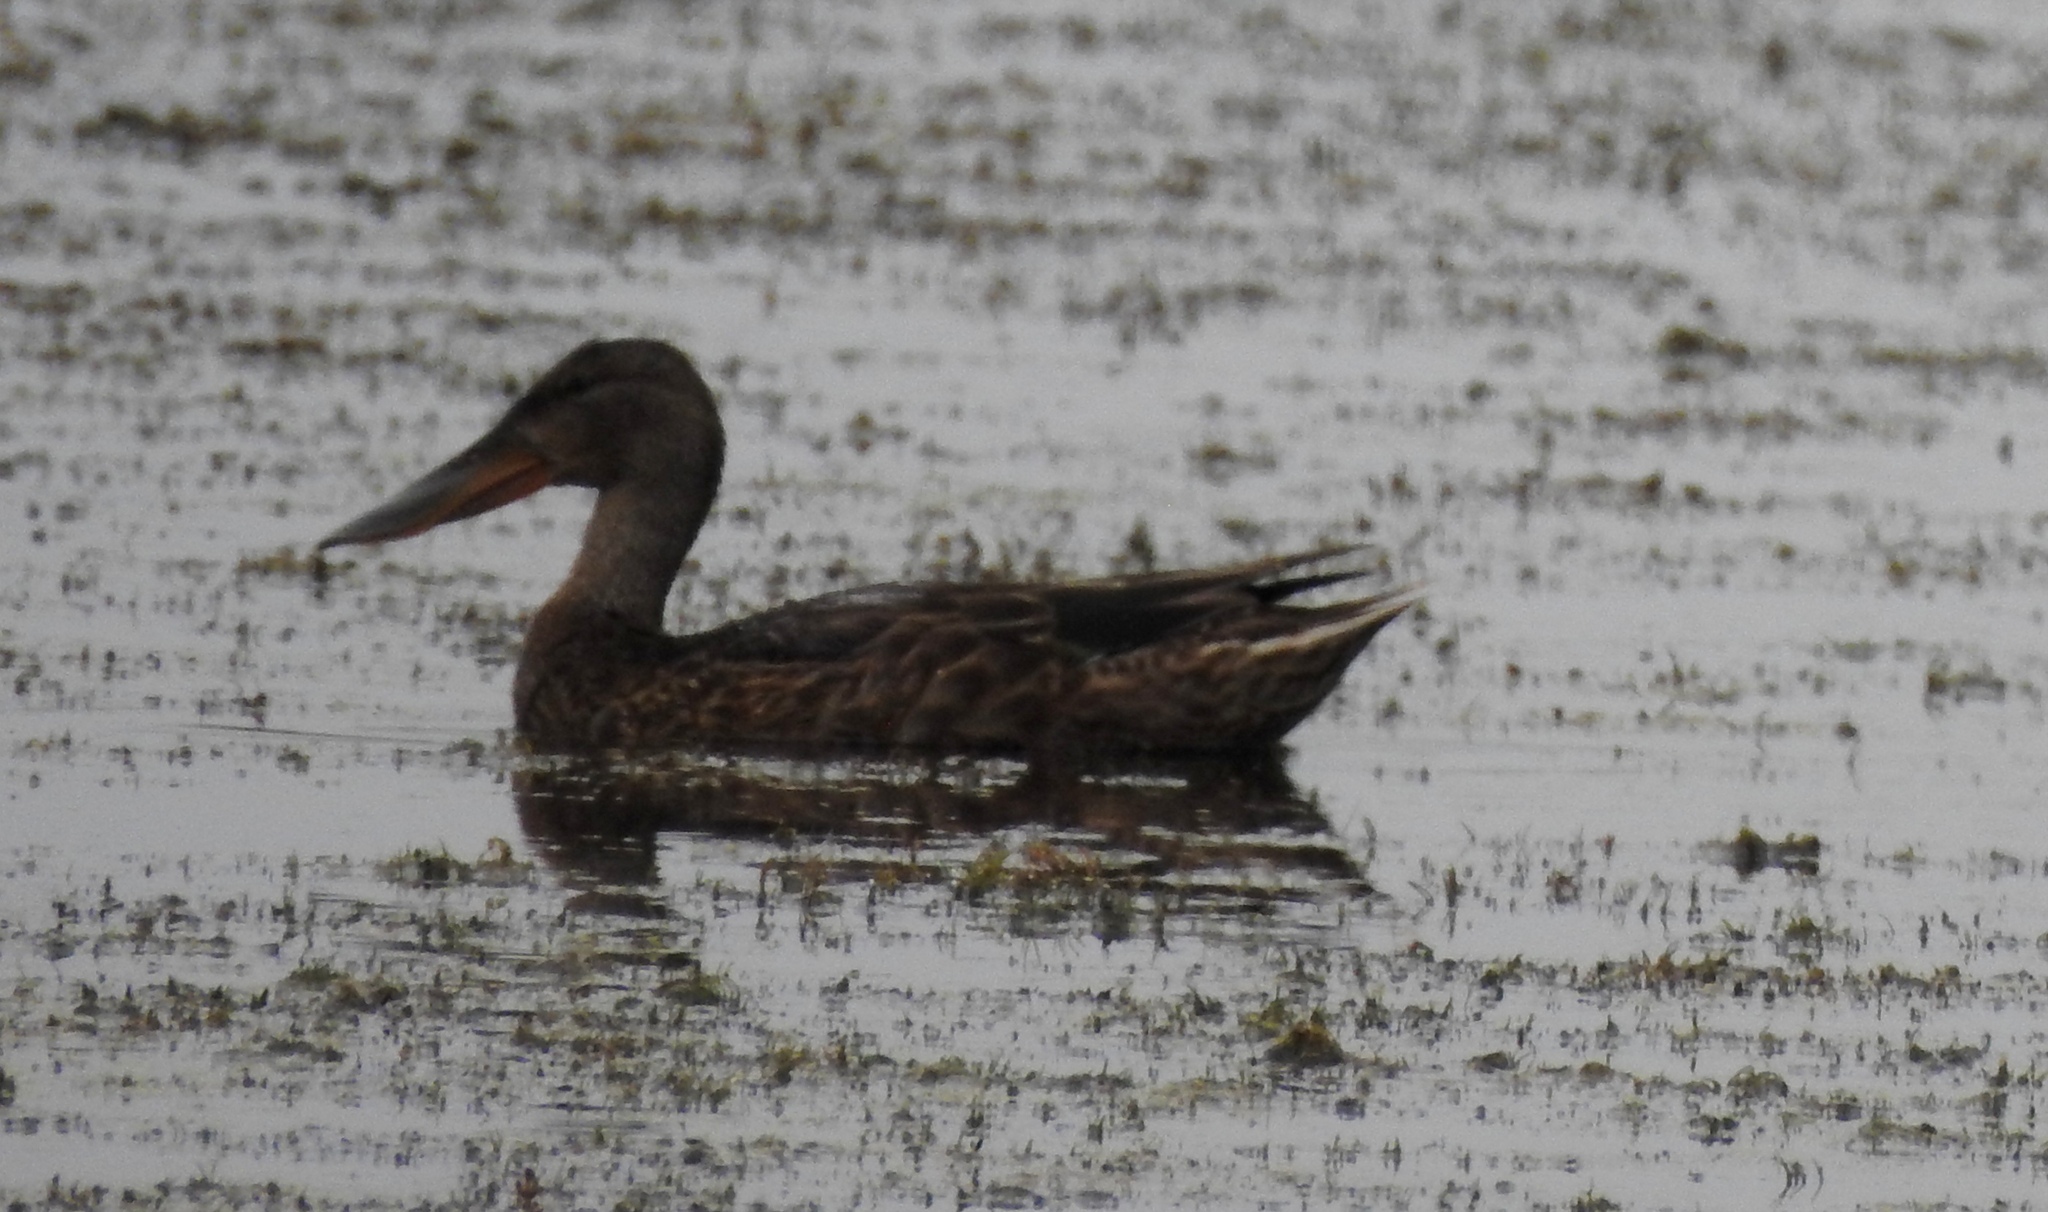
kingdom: Animalia
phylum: Chordata
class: Aves
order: Anseriformes
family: Anatidae
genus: Spatula
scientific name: Spatula clypeata
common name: Northern shoveler
